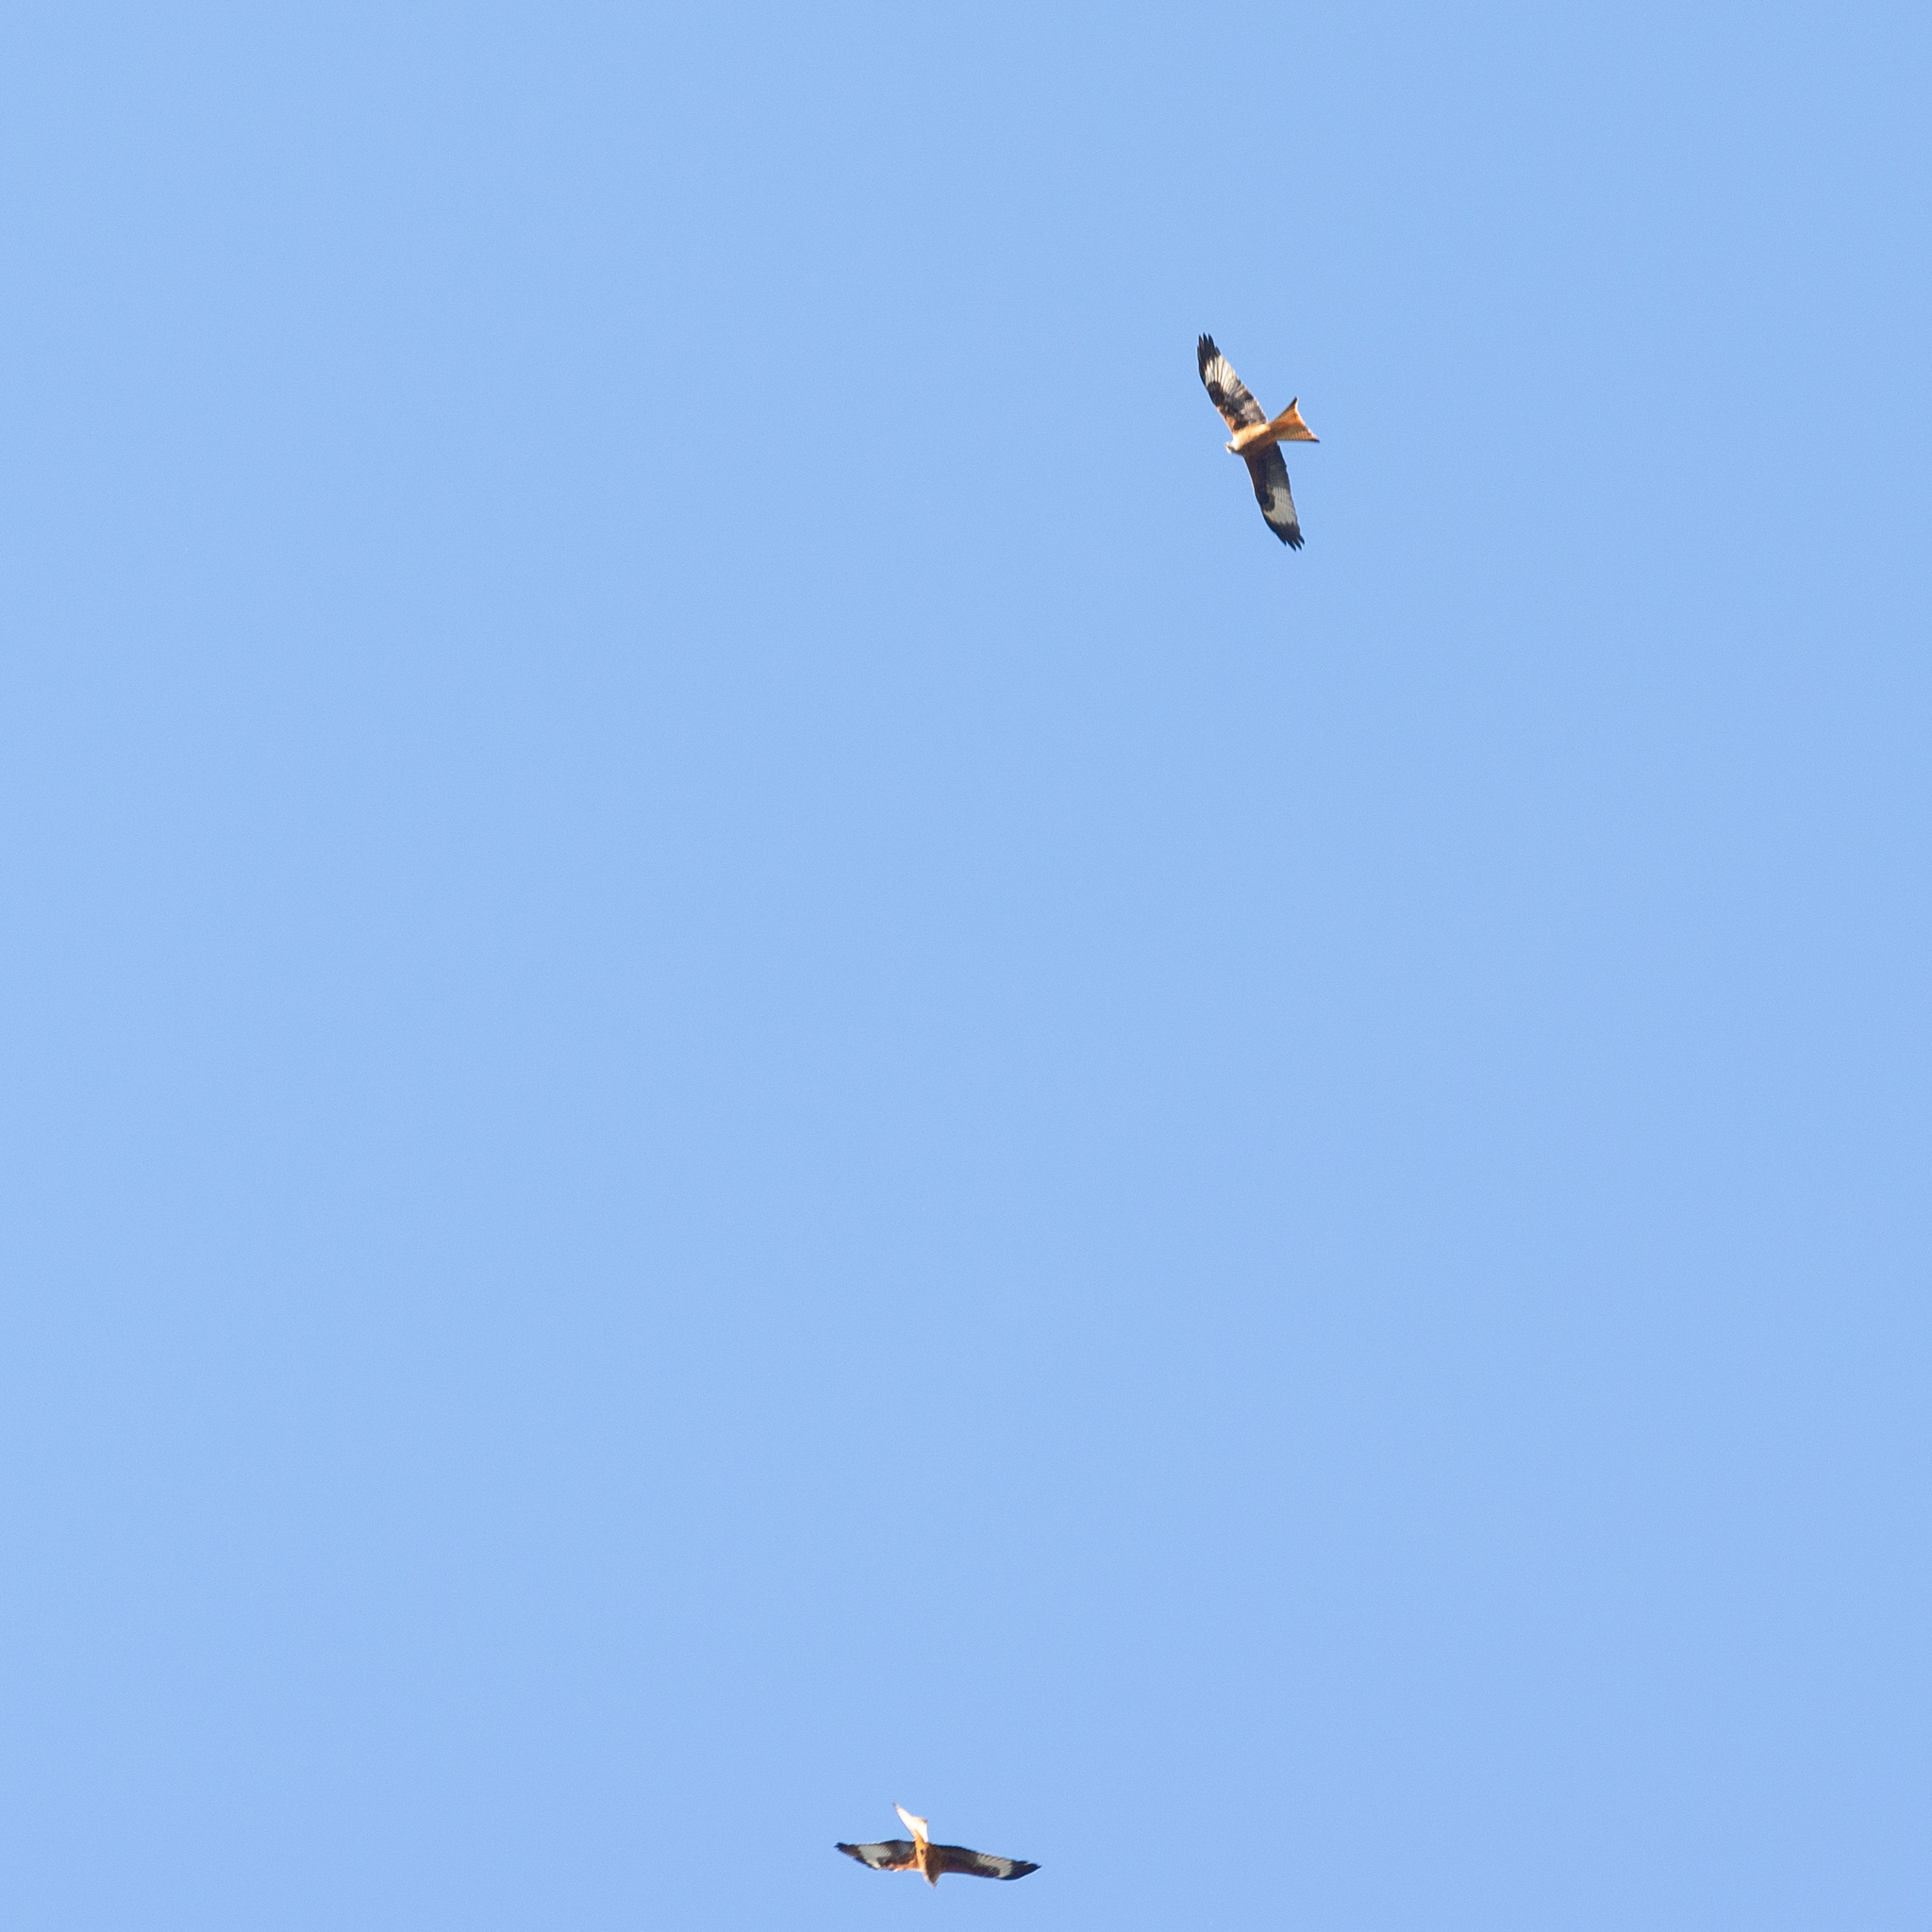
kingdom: Animalia
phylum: Chordata
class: Aves
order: Accipitriformes
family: Accipitridae
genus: Milvus
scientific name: Milvus milvus
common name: Red kite
